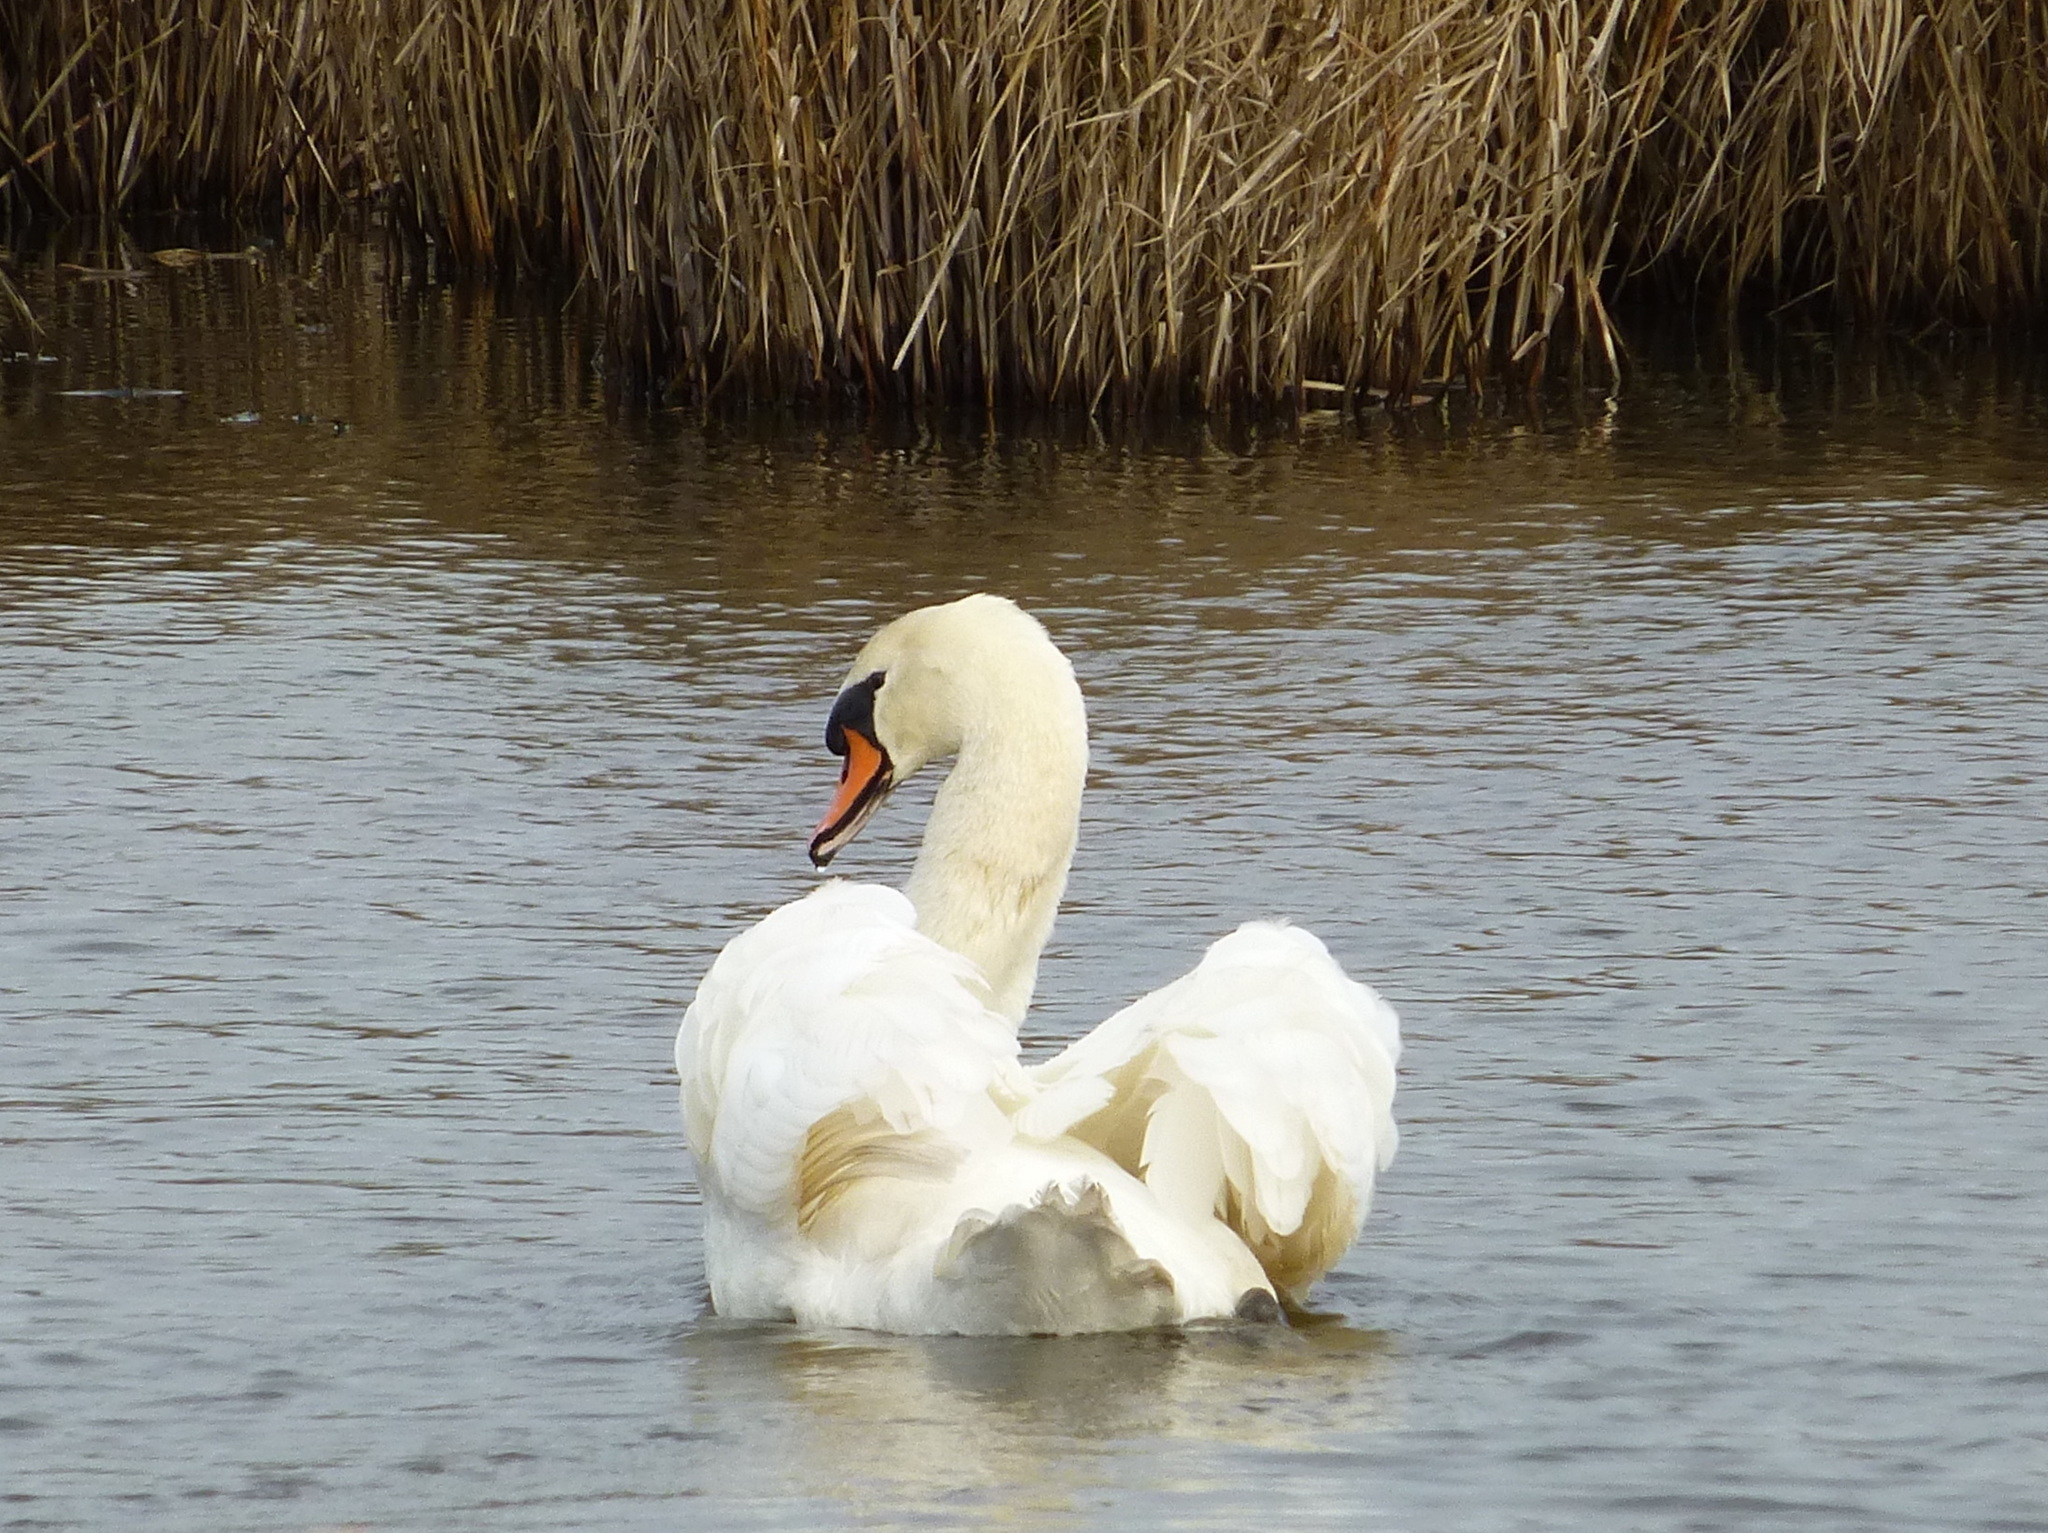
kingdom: Animalia
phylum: Chordata
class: Aves
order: Anseriformes
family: Anatidae
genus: Cygnus
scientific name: Cygnus olor
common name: Mute swan
